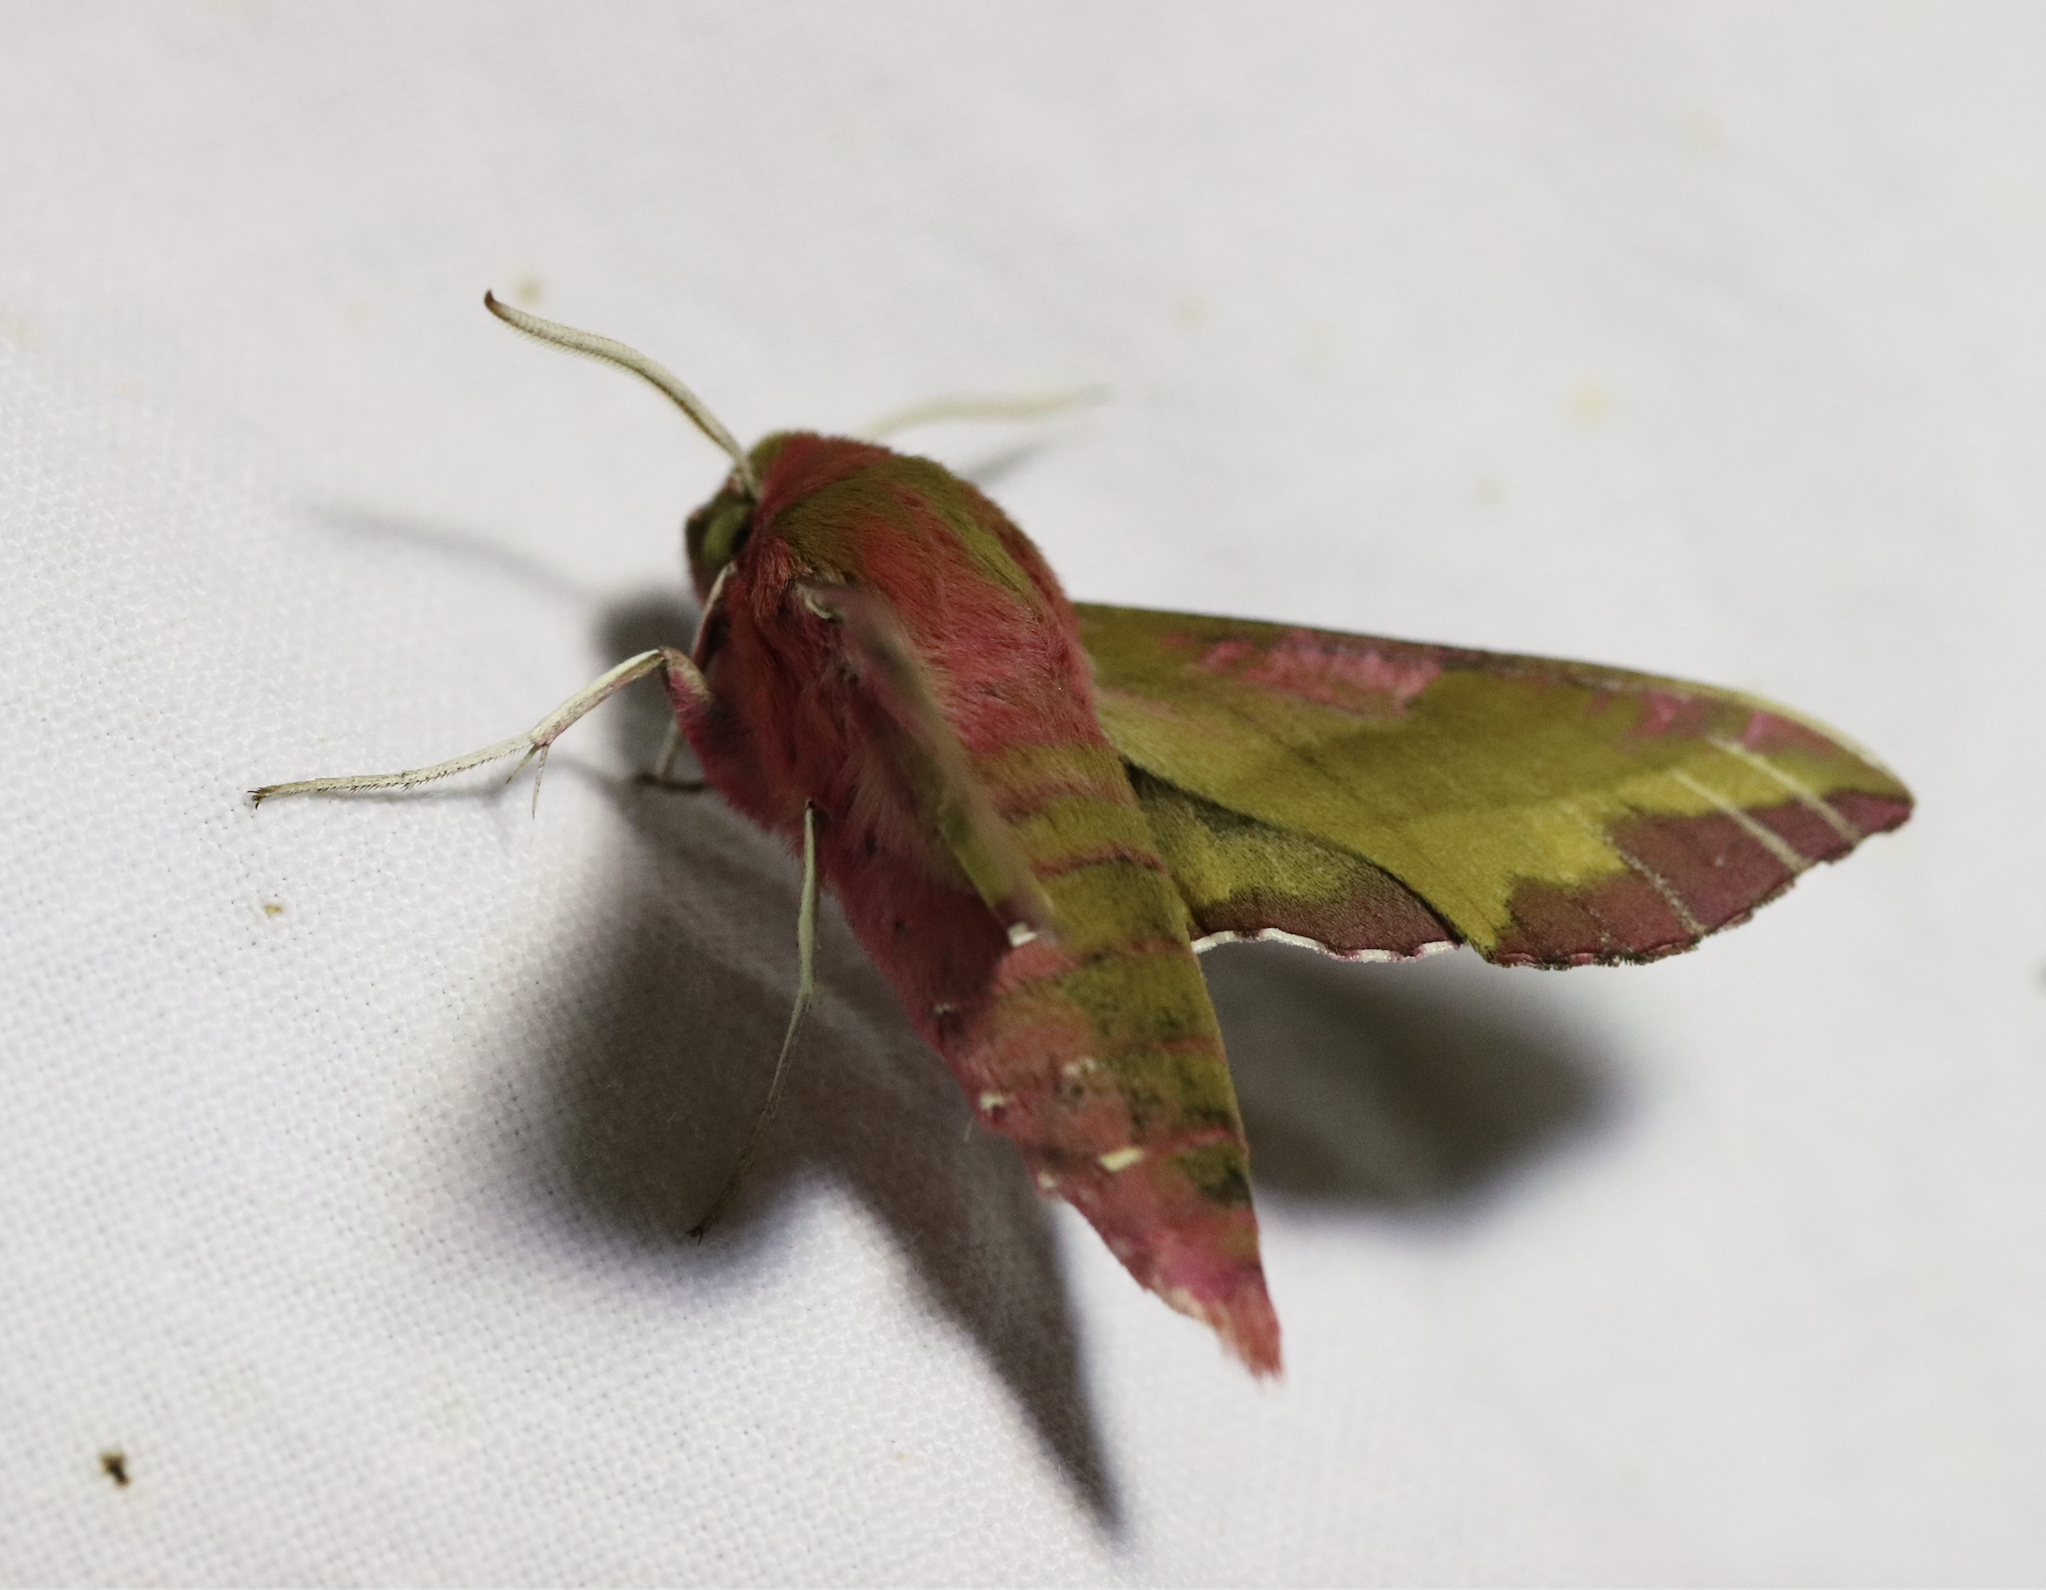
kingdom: Animalia
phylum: Arthropoda
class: Insecta
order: Lepidoptera
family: Sphingidae
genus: Deilephila
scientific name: Deilephila porcellus
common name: Small elephant hawk-moth
